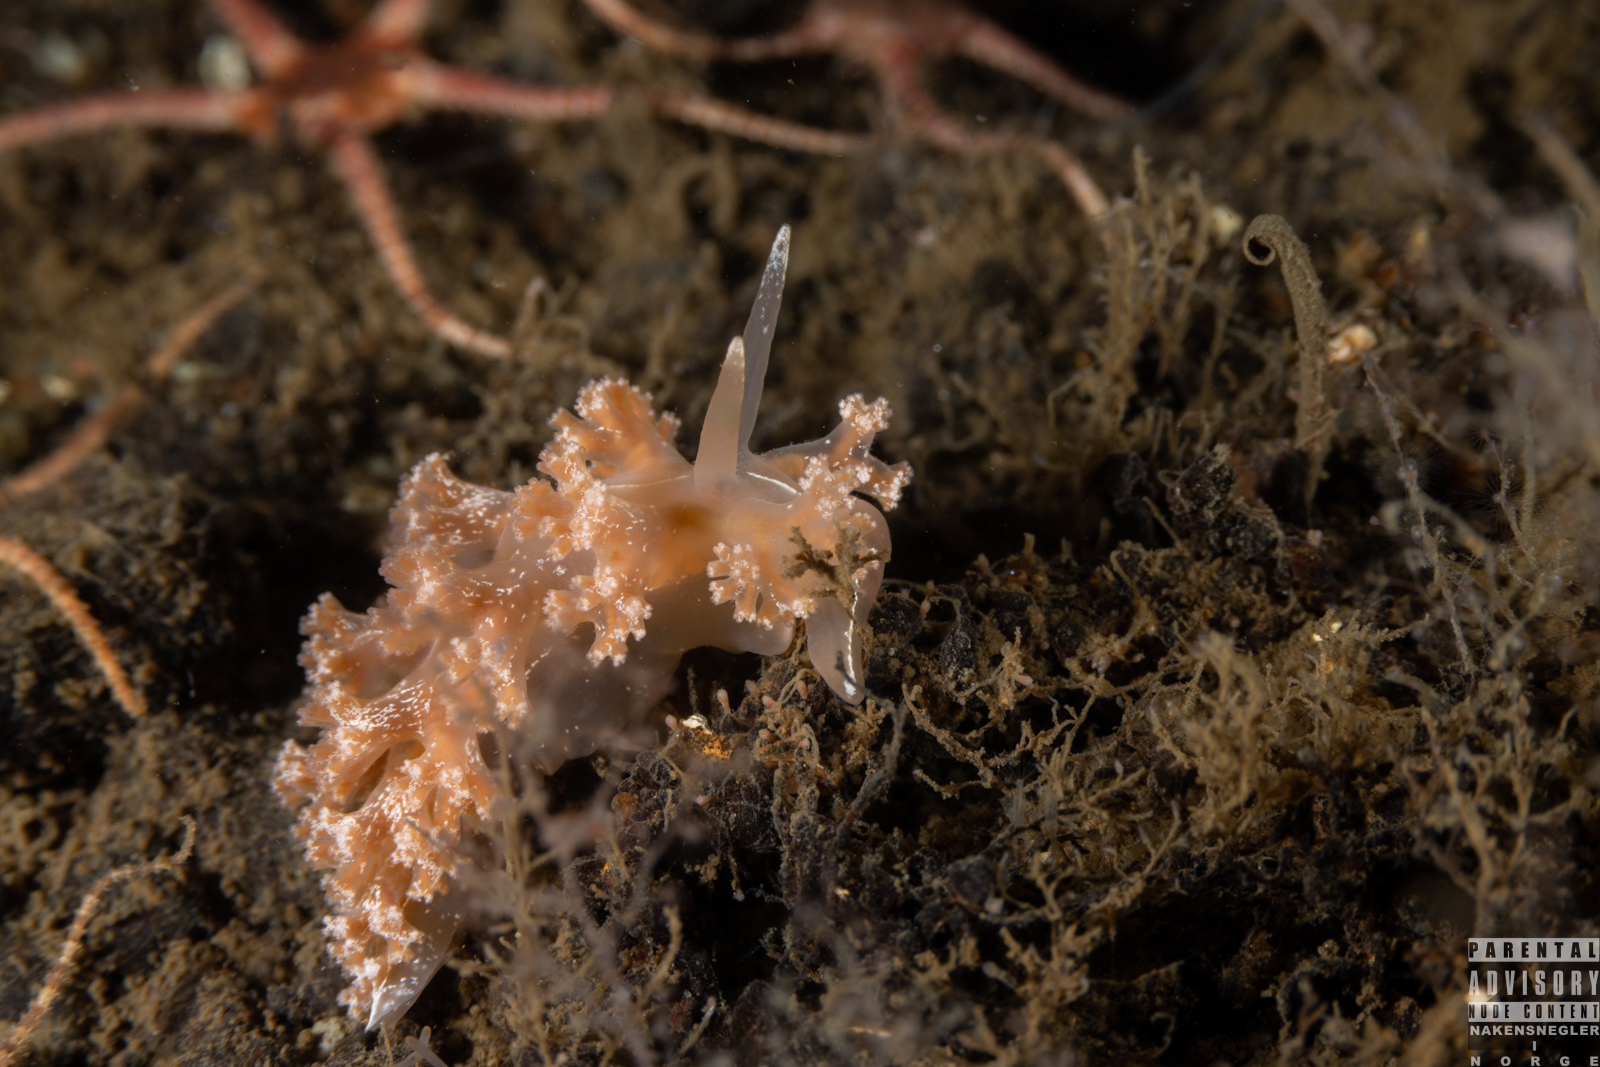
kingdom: Animalia
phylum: Mollusca
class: Gastropoda
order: Nudibranchia
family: Heroidae
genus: Hero
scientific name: Hero formosa
